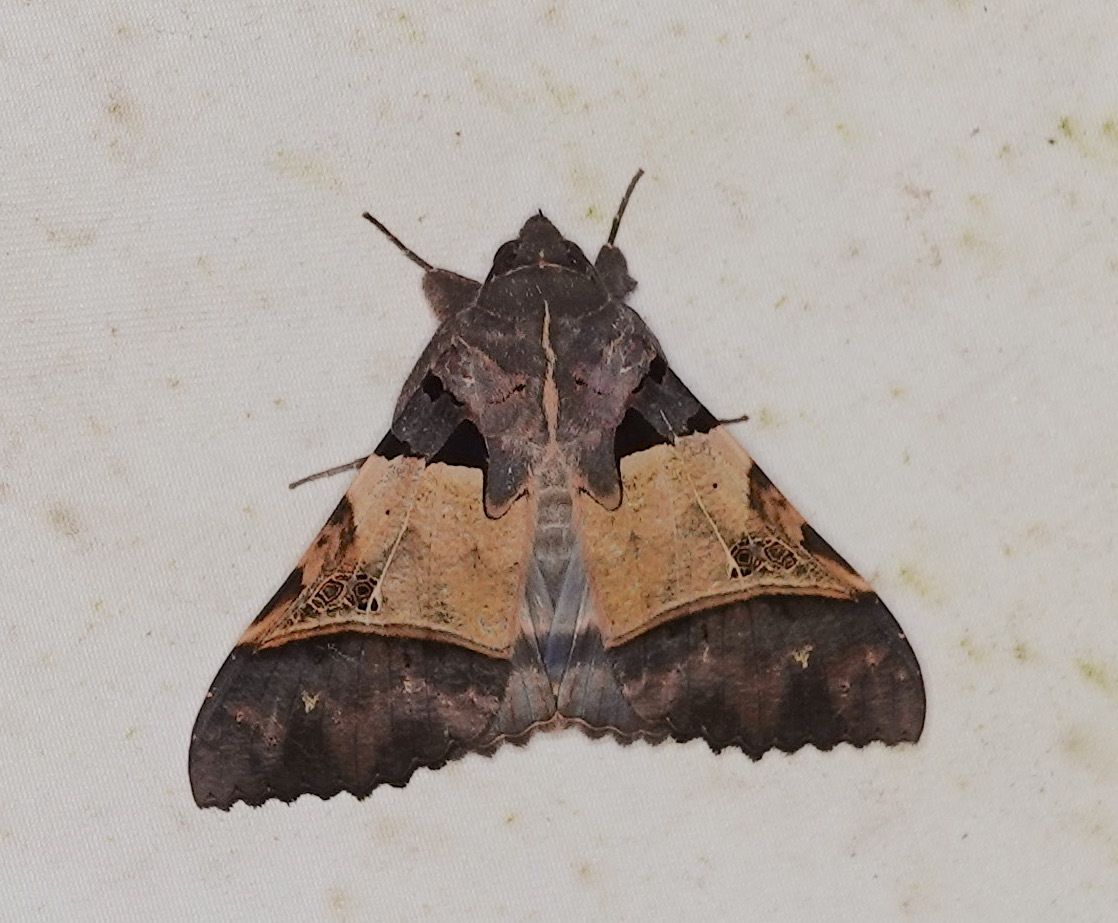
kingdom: Animalia
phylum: Arthropoda
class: Insecta
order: Lepidoptera
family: Erebidae
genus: Serrodes
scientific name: Serrodes campana
